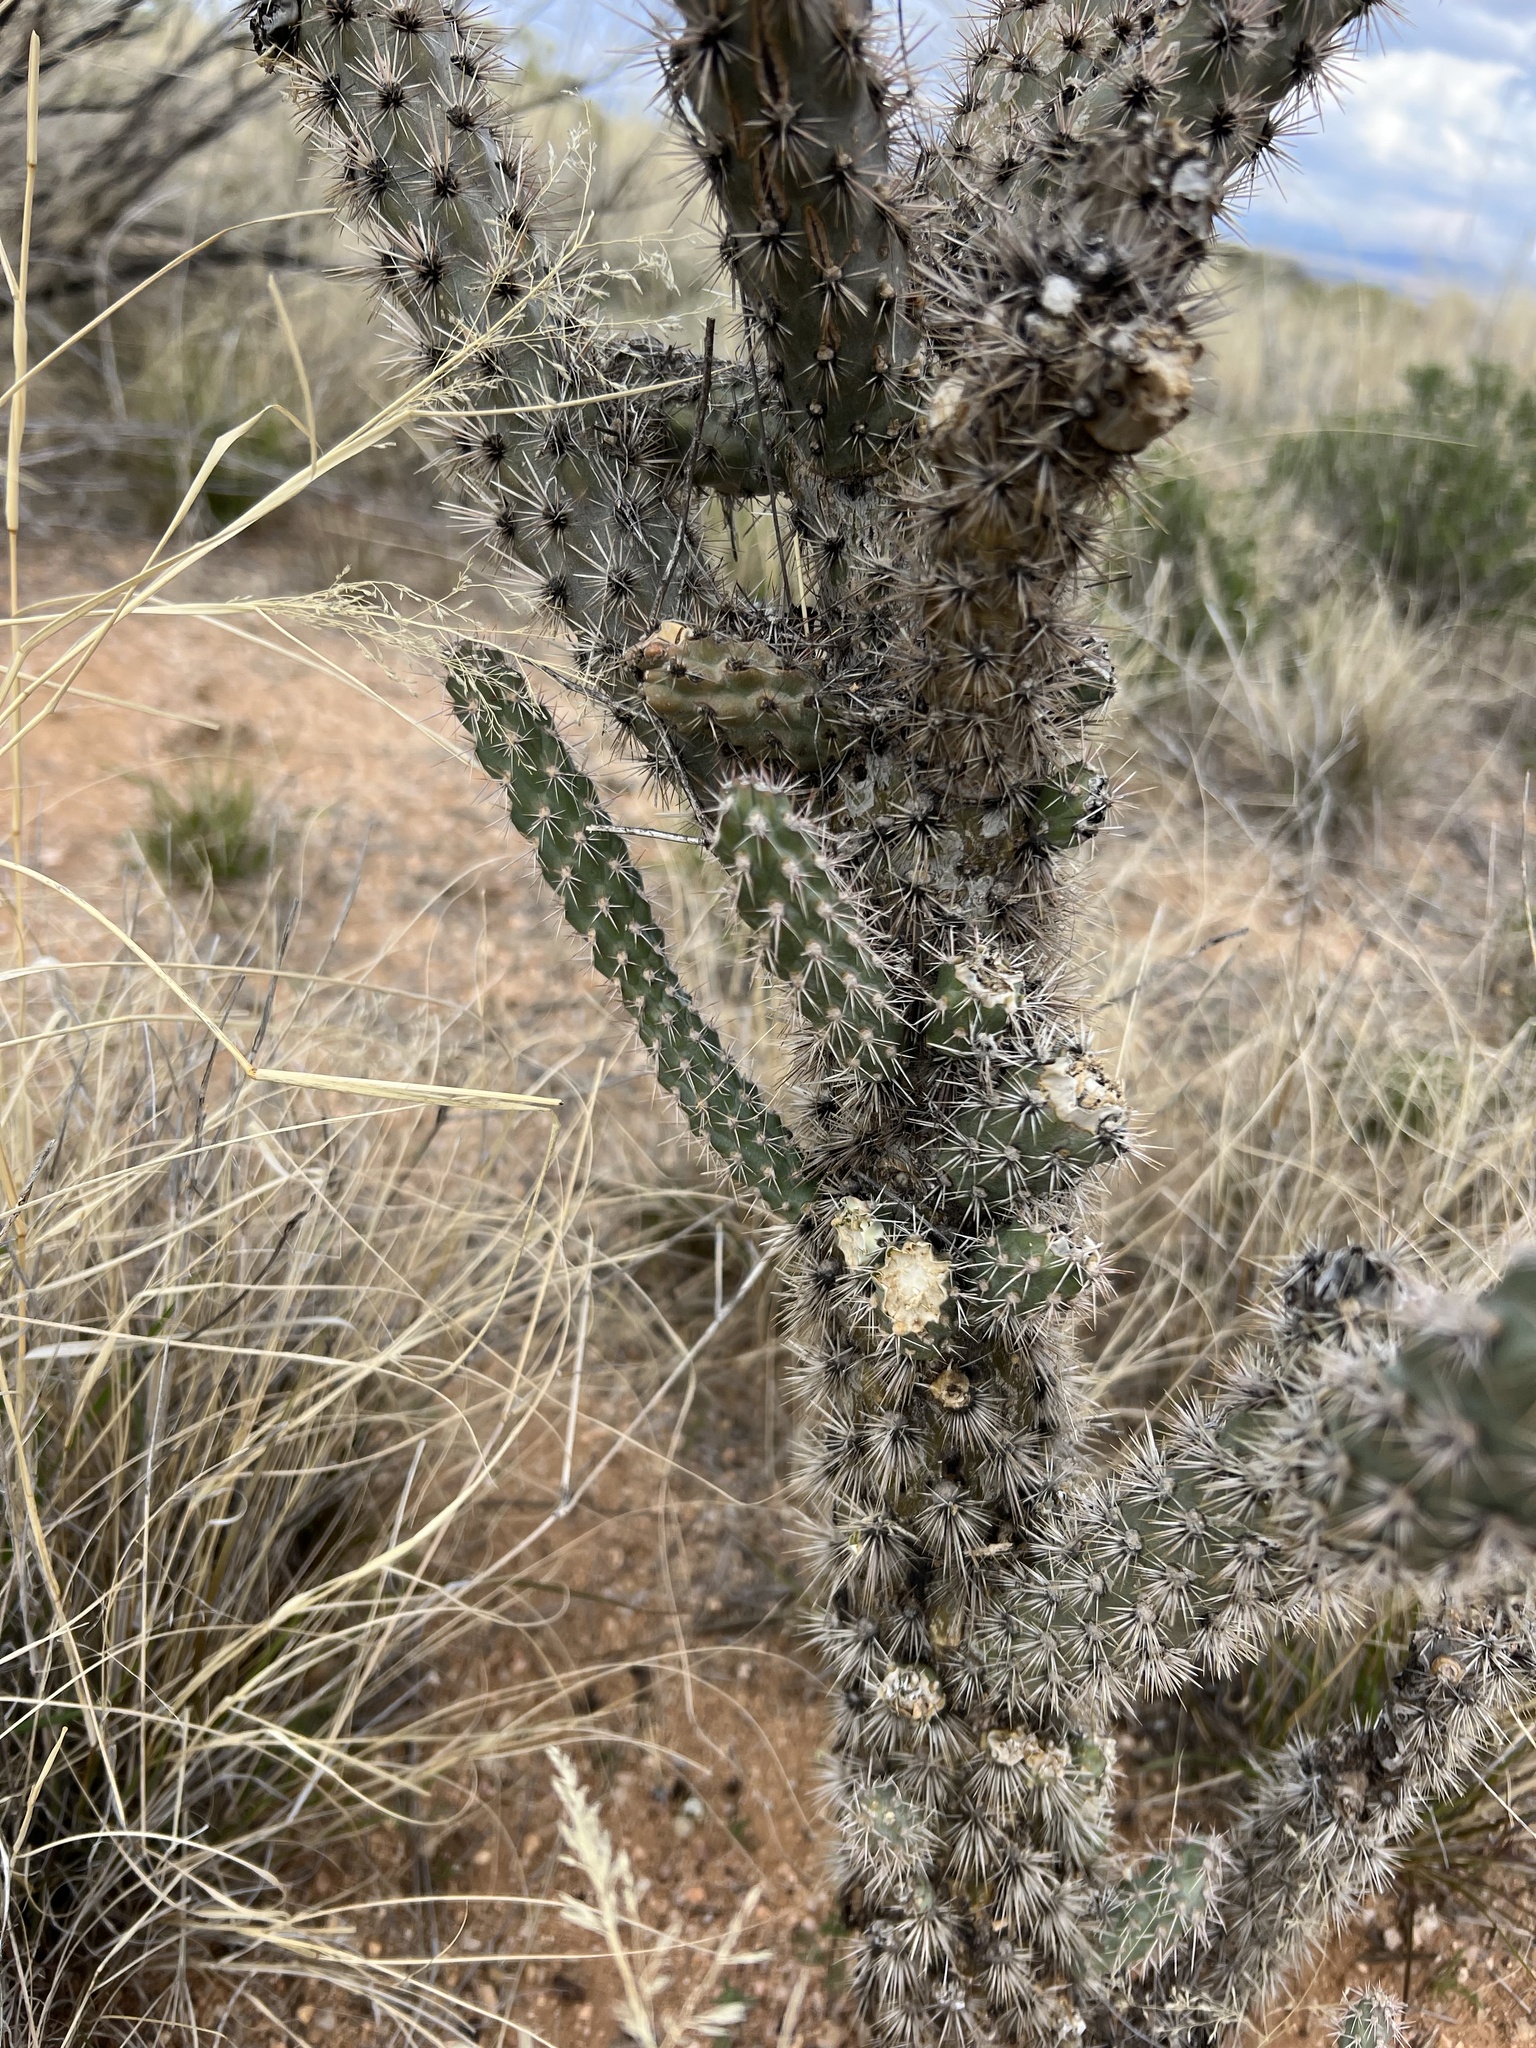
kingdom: Plantae
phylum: Tracheophyta
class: Magnoliopsida
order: Caryophyllales
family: Cactaceae
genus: Cylindropuntia
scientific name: Cylindropuntia imbricata
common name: Candelabrum cactus
